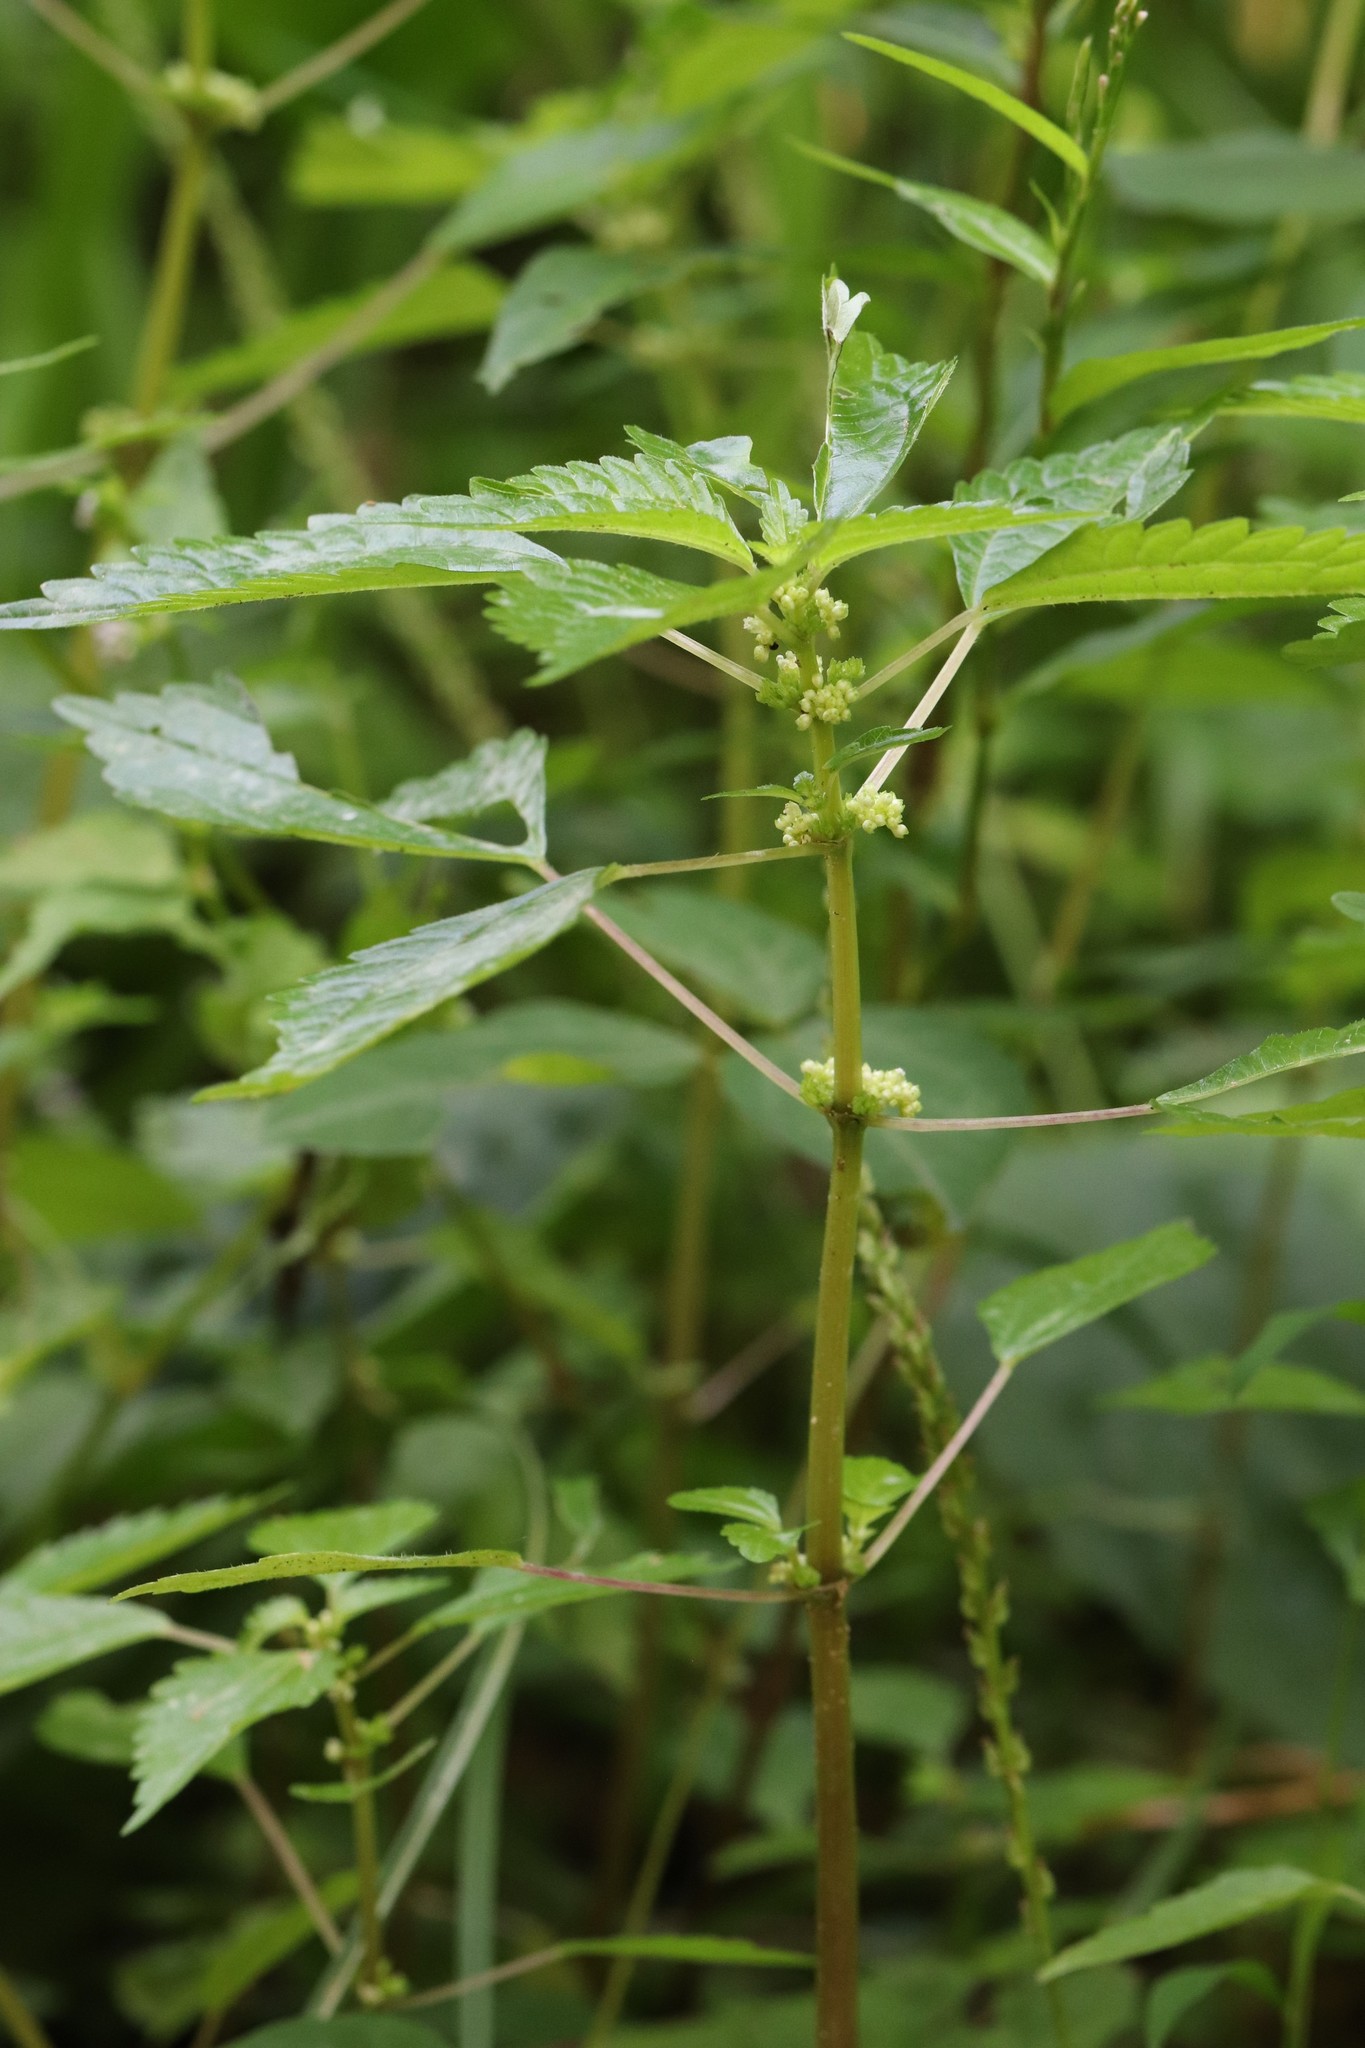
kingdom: Plantae
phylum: Tracheophyta
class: Magnoliopsida
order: Rosales
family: Urticaceae
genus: Pilea
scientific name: Pilea pumila
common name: Clearweed
